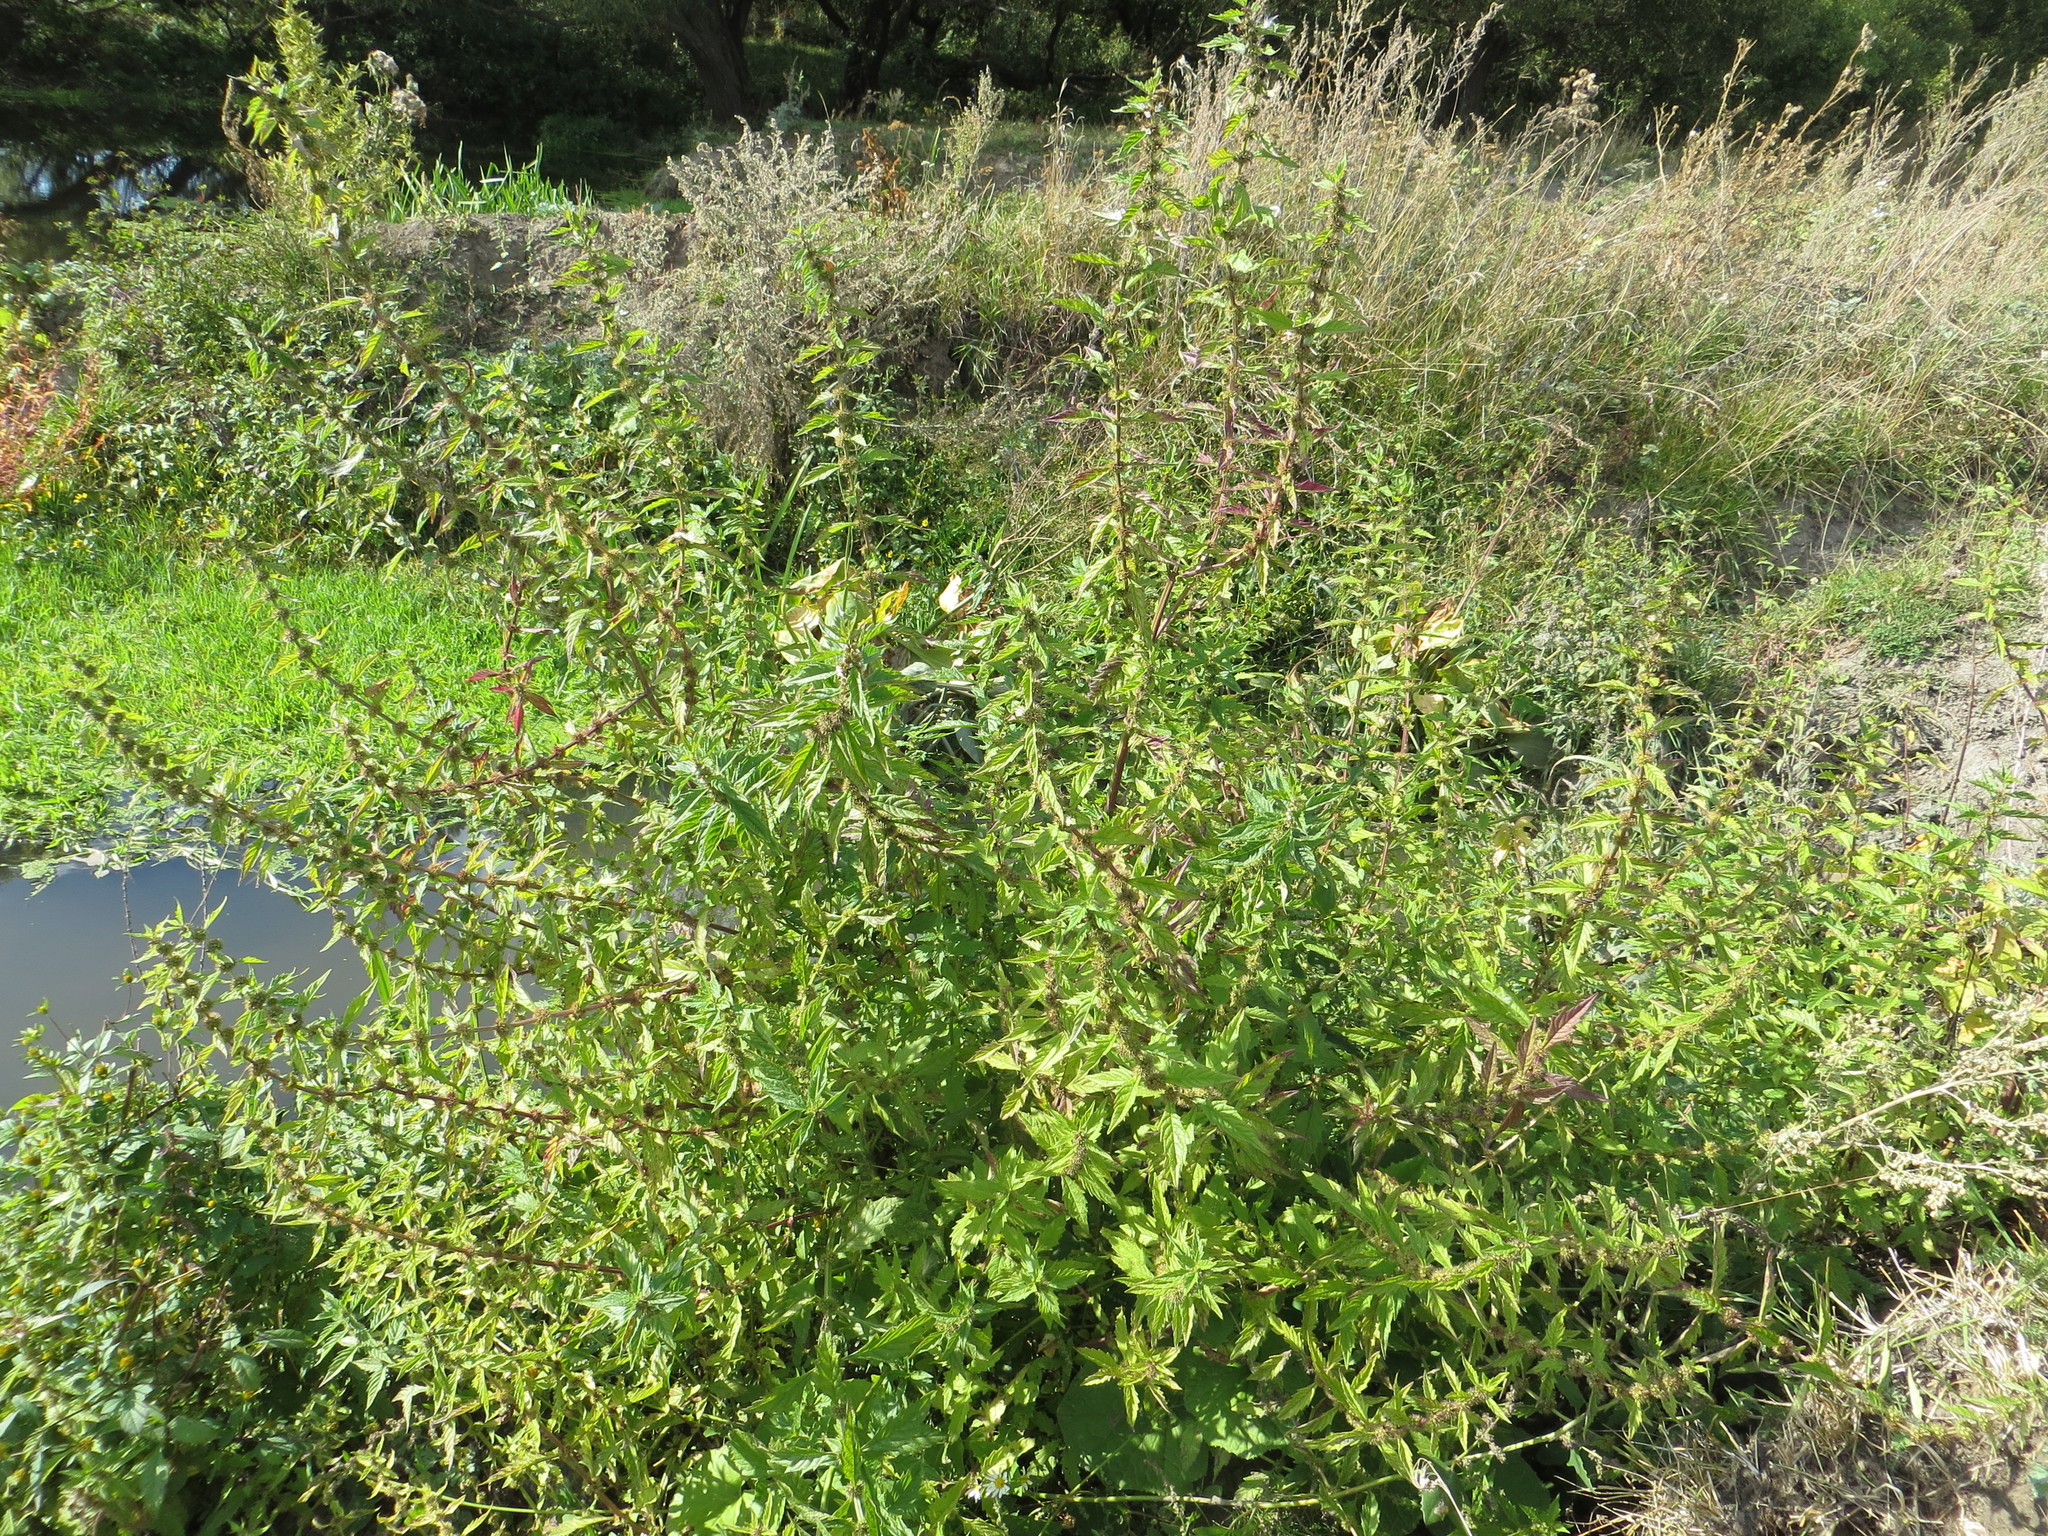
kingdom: Plantae
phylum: Tracheophyta
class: Magnoliopsida
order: Lamiales
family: Lamiaceae
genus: Lycopus
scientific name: Lycopus europaeus
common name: European bugleweed
